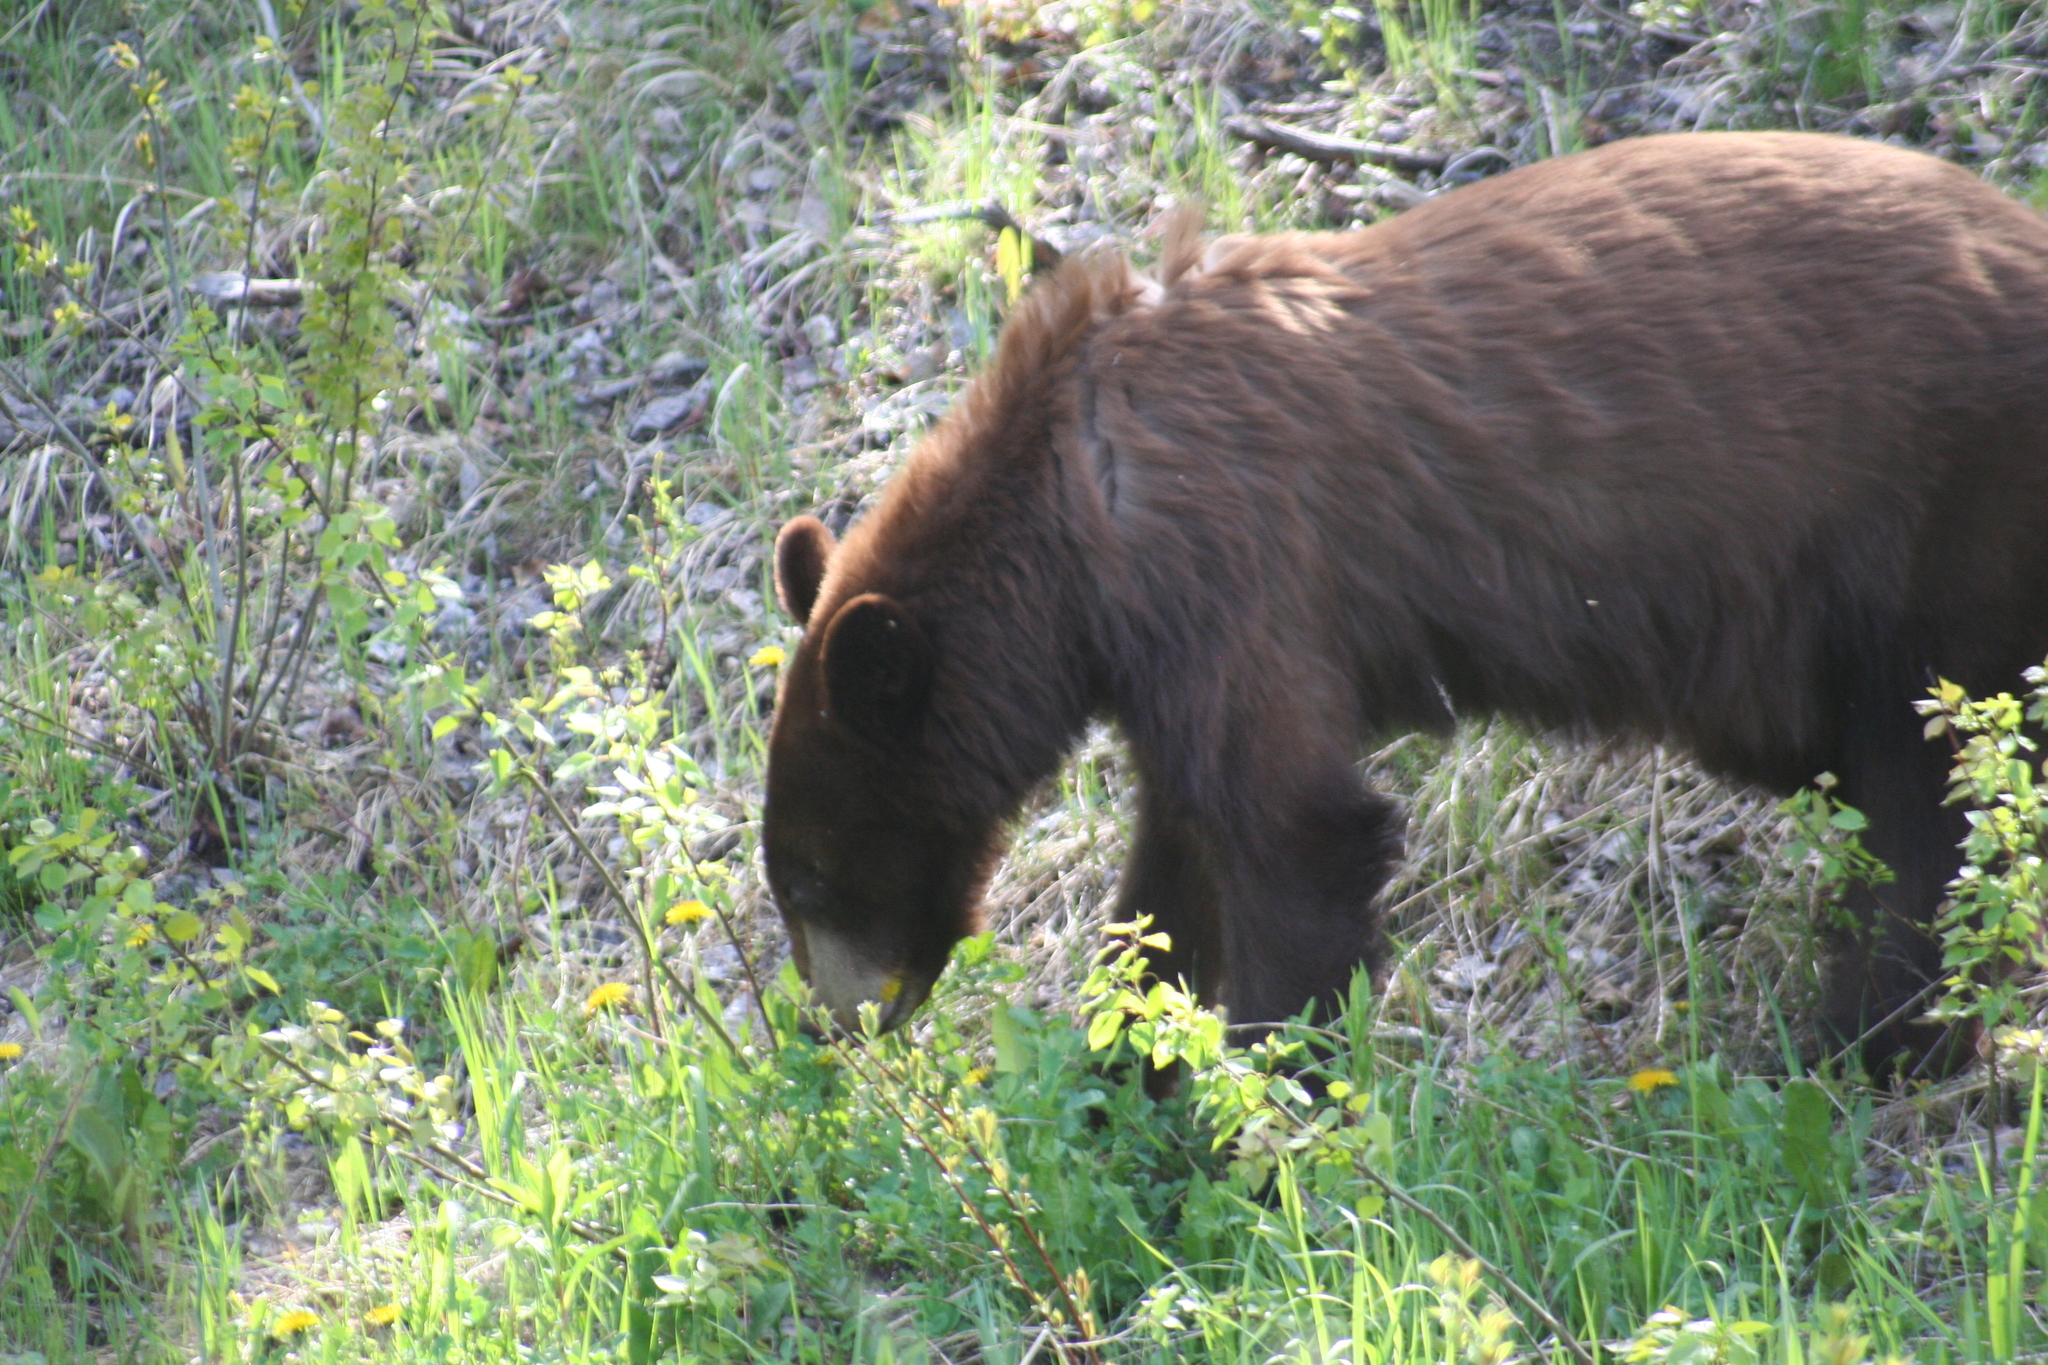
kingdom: Animalia
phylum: Chordata
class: Mammalia
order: Carnivora
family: Ursidae
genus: Ursus
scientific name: Ursus americanus
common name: American black bear
